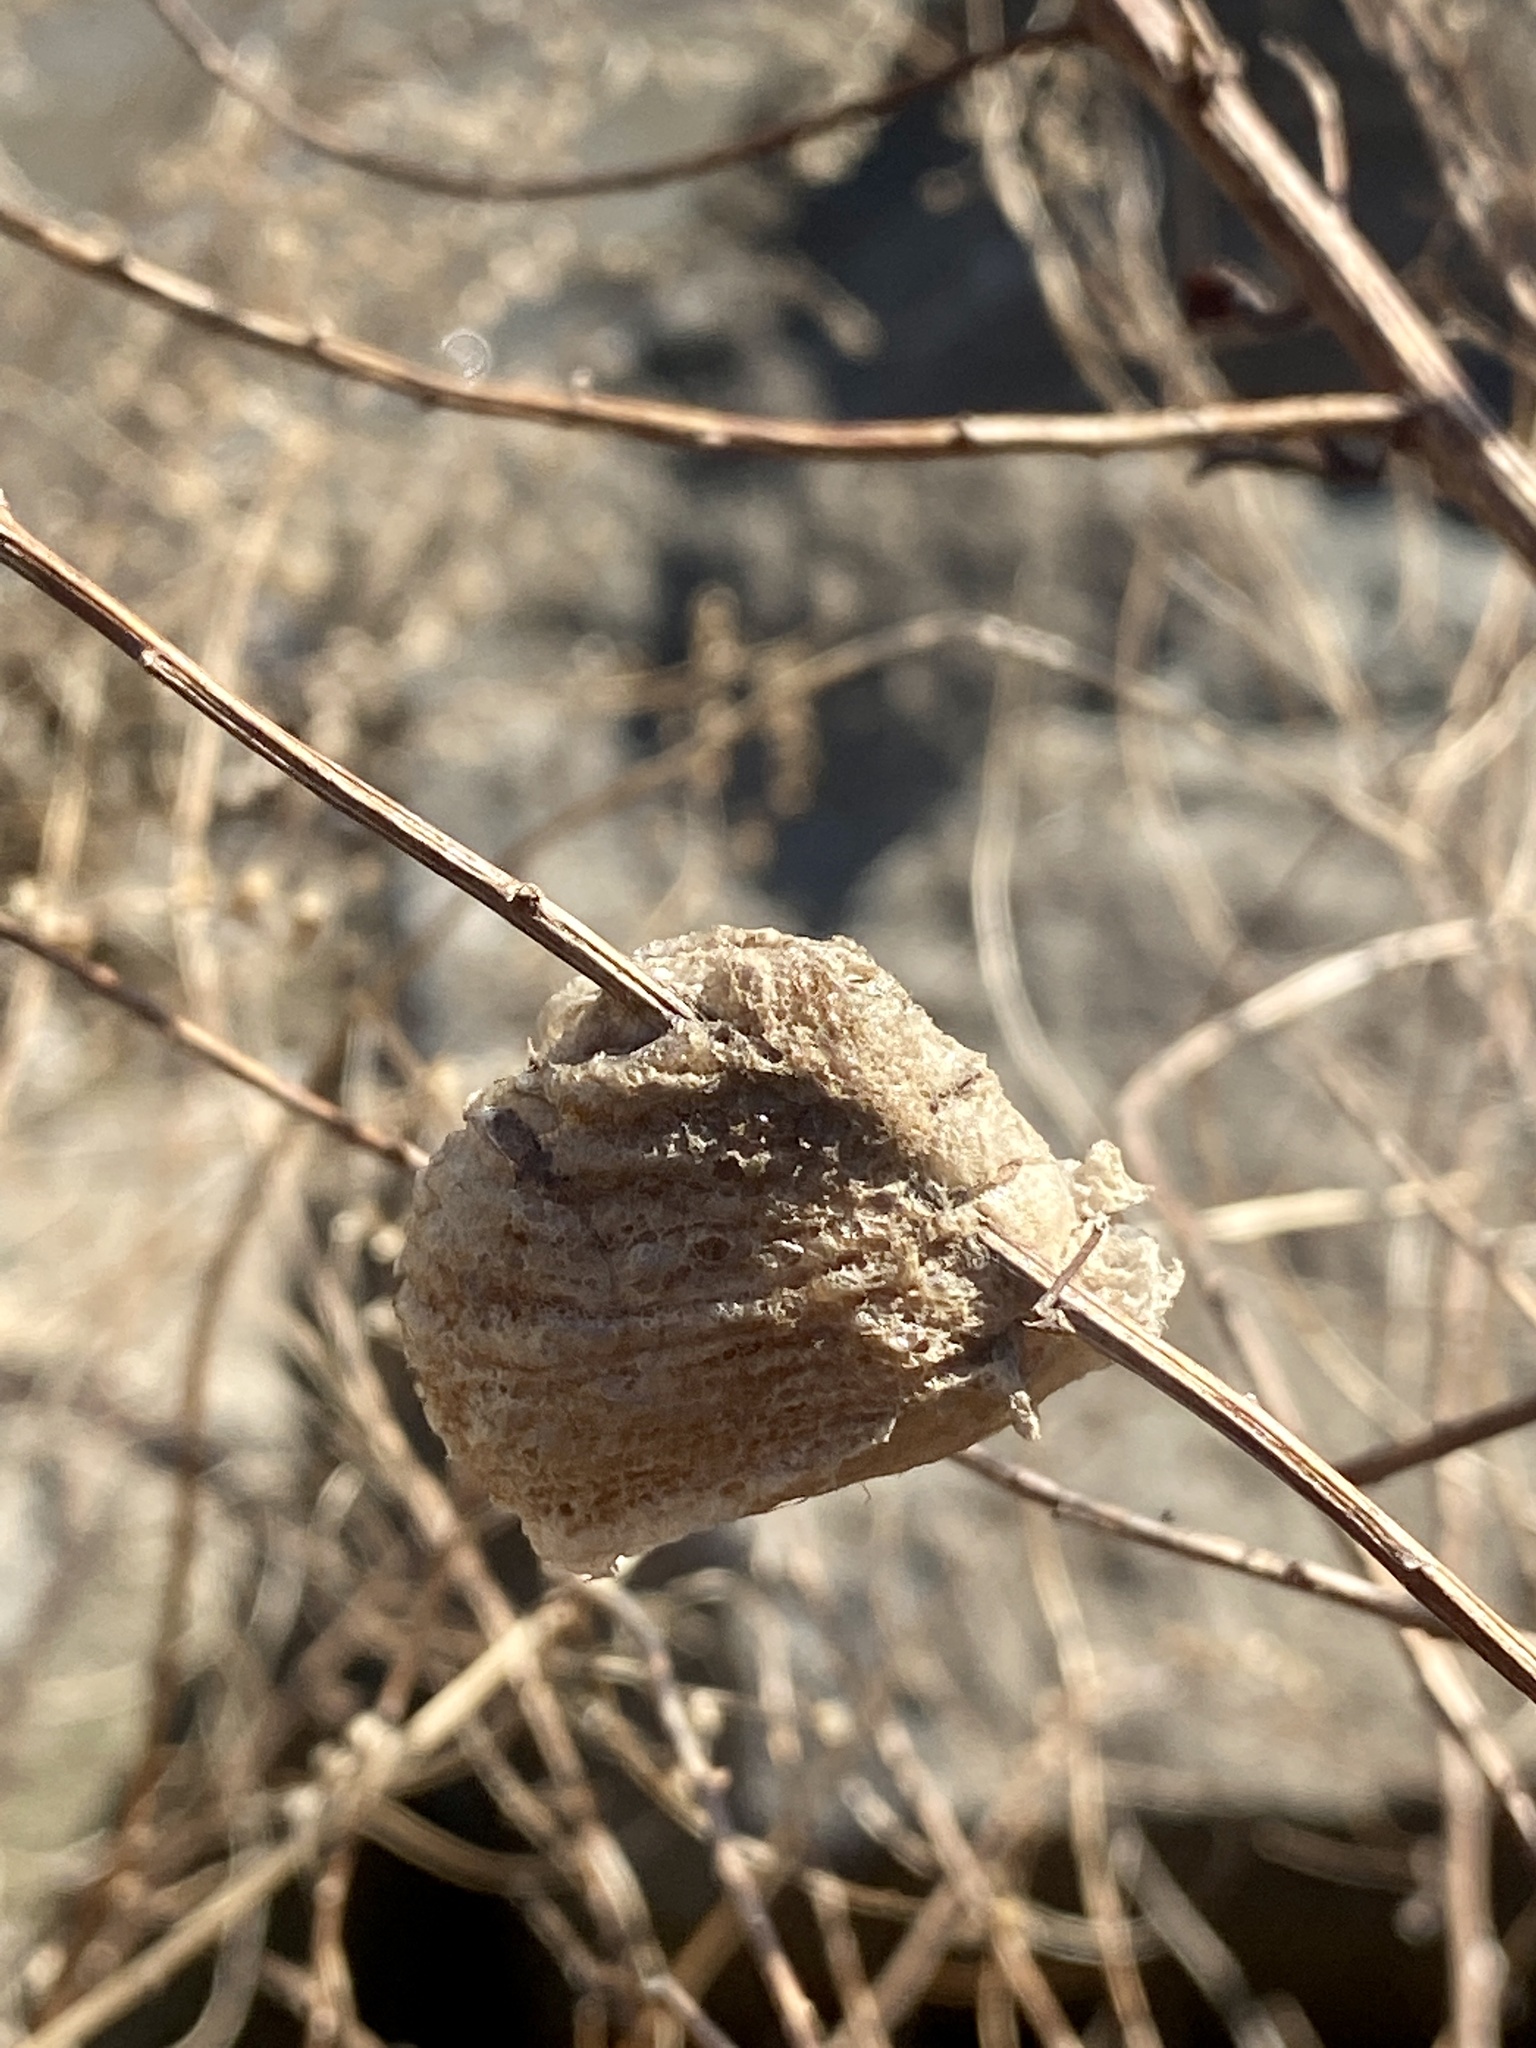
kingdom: Animalia
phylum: Arthropoda
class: Insecta
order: Mantodea
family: Mantidae
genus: Tenodera
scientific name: Tenodera sinensis
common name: Chinese mantis
